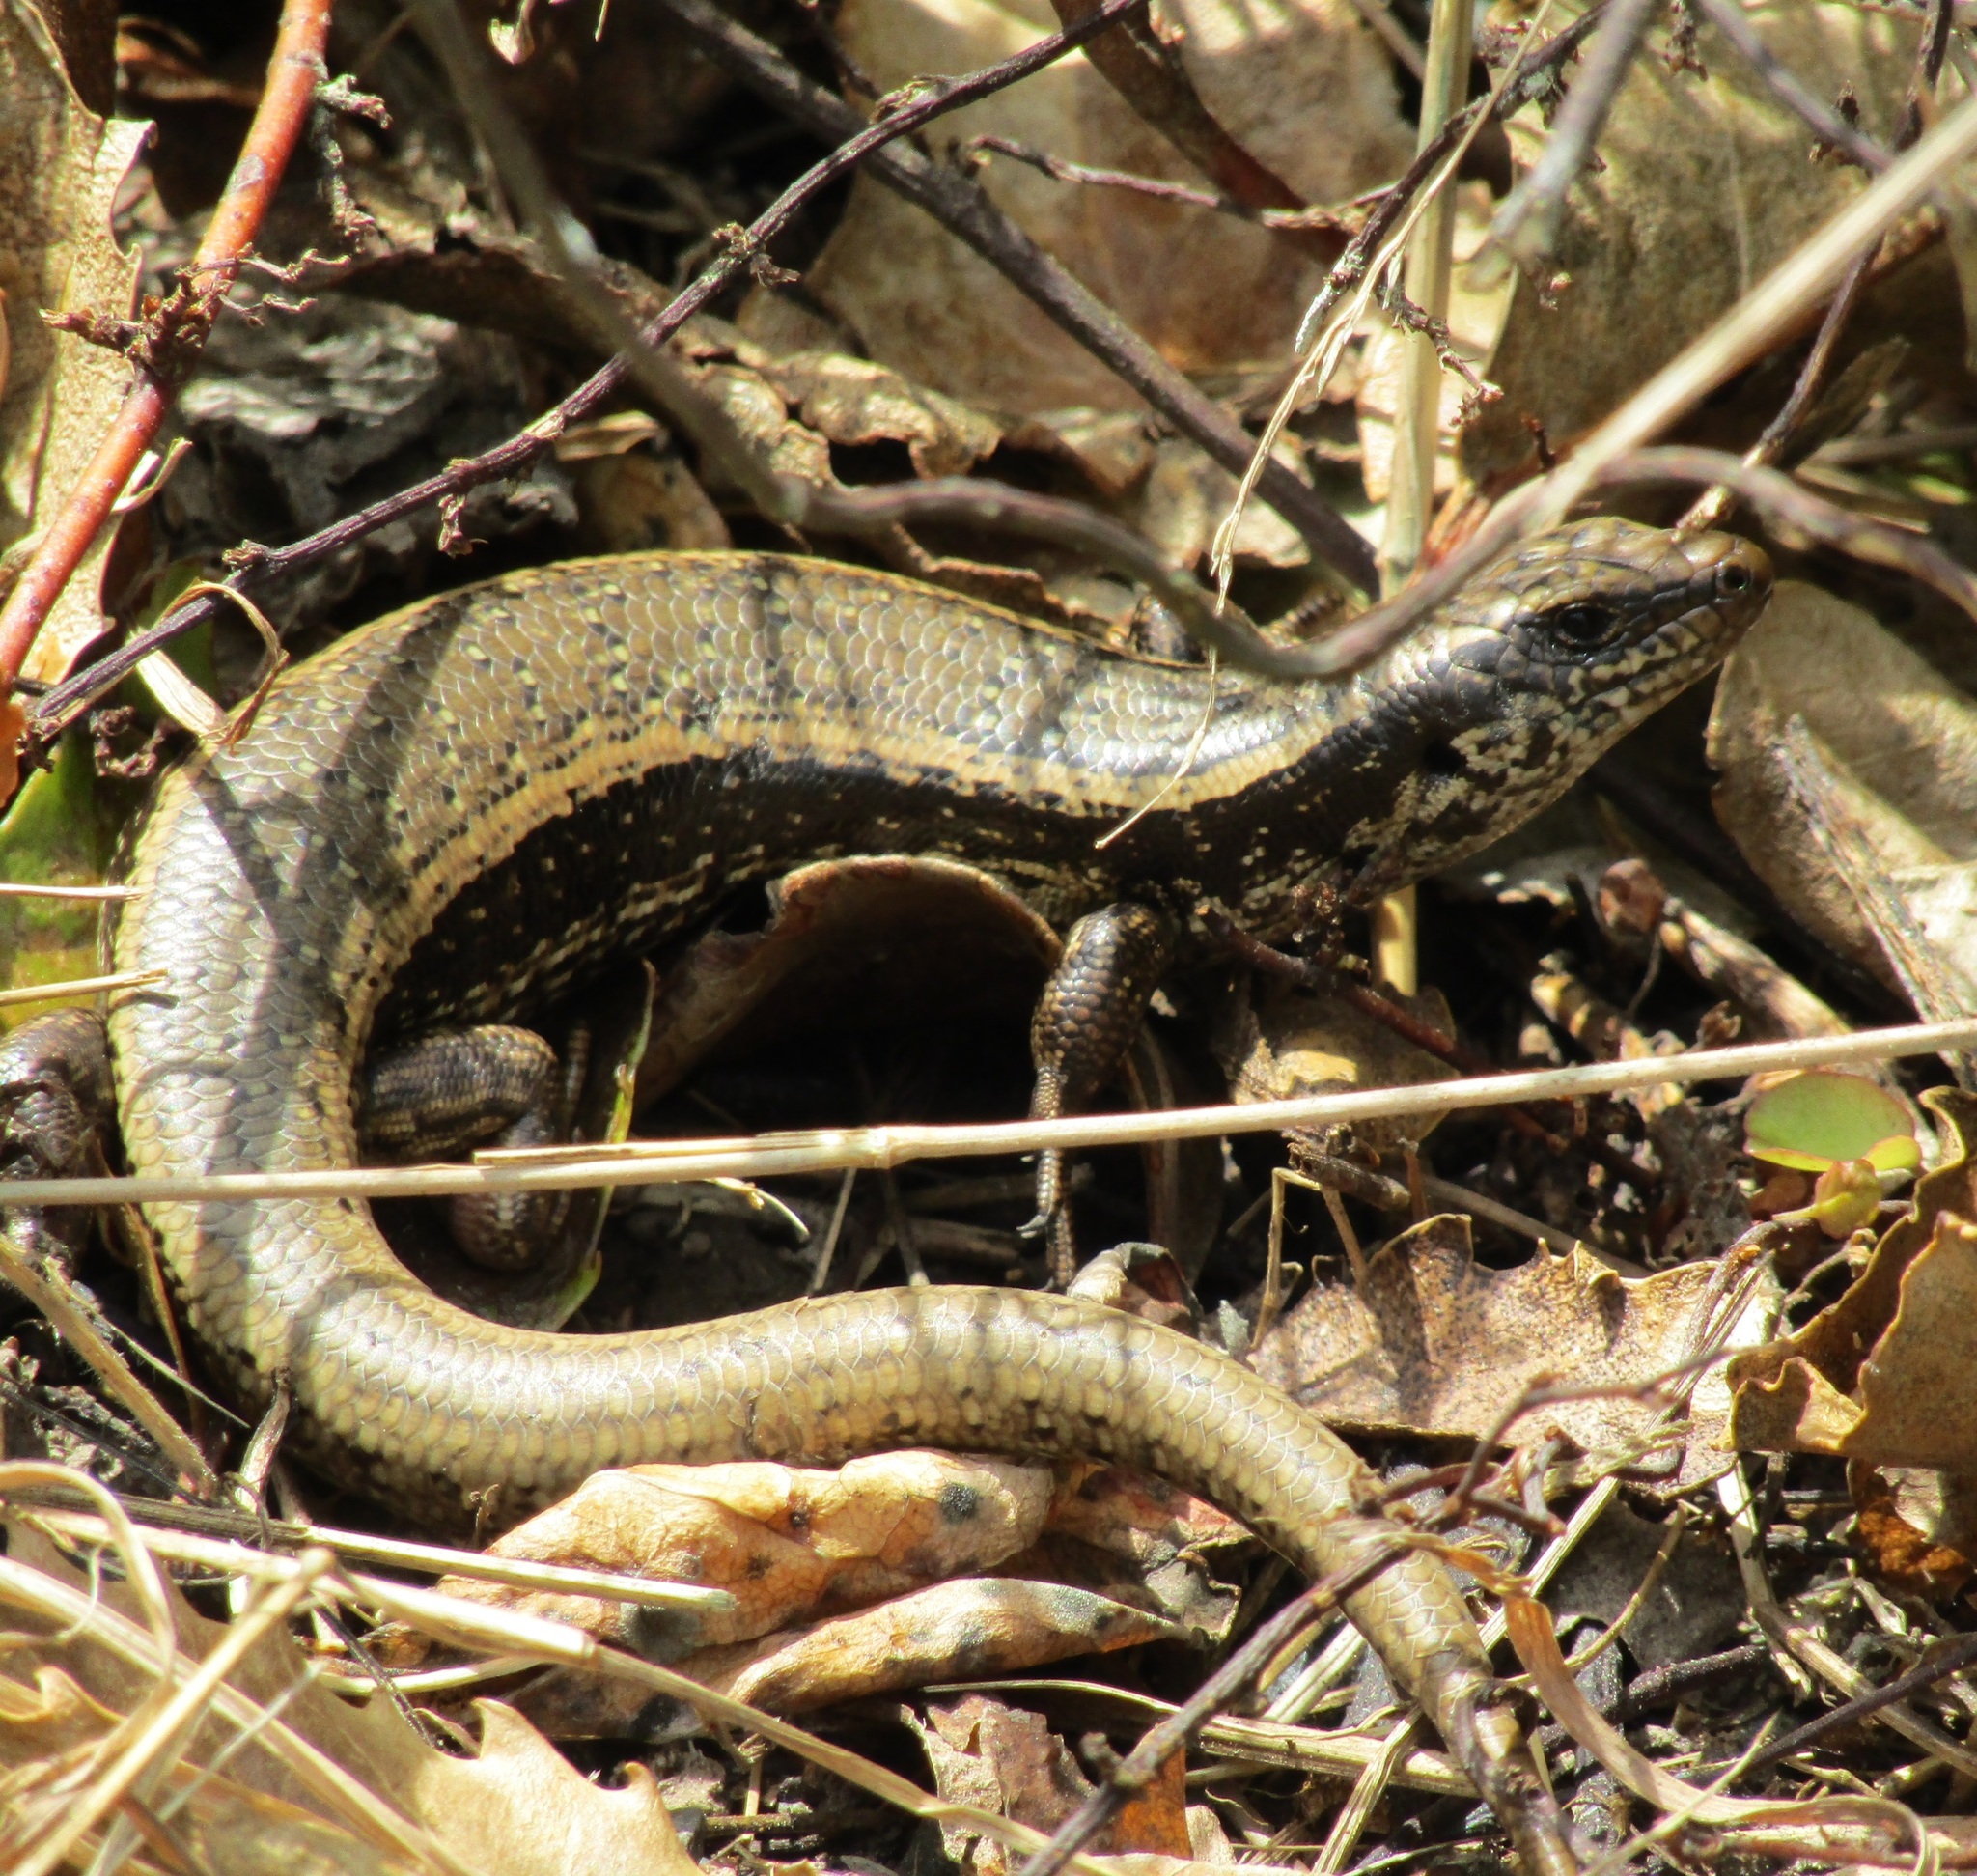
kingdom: Animalia
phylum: Chordata
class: Squamata
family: Scincidae
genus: Oligosoma
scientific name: Oligosoma kokowai
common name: Northern spotted skink
